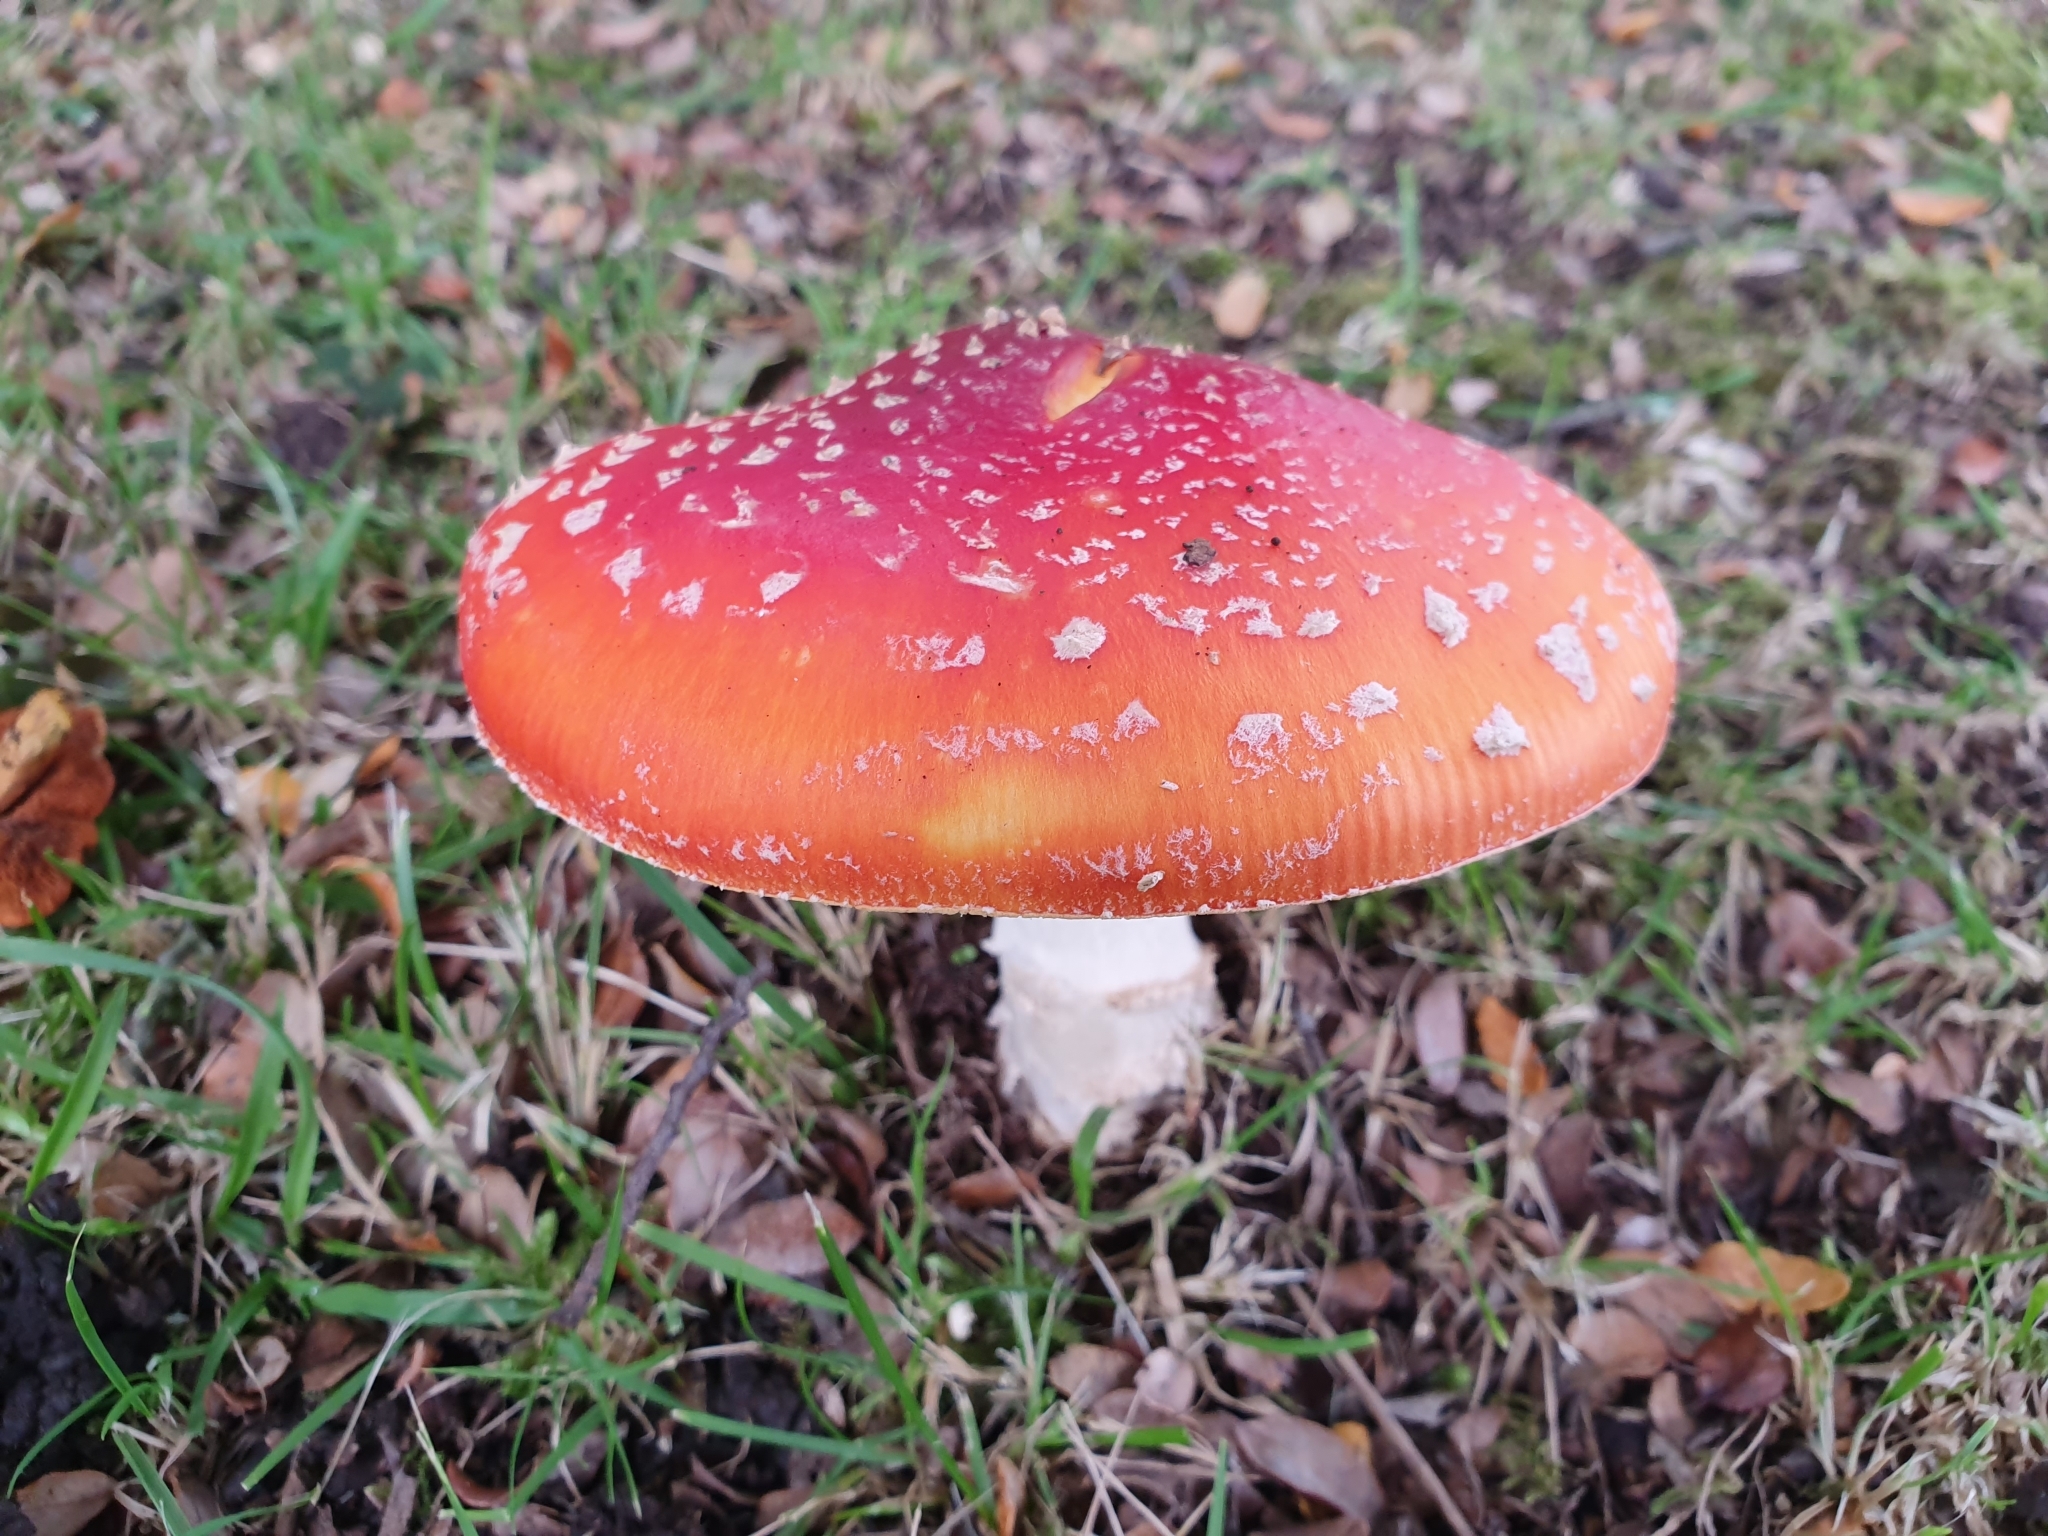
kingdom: Fungi
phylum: Basidiomycota
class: Agaricomycetes
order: Agaricales
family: Amanitaceae
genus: Amanita
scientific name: Amanita muscaria
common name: Fly agaric
